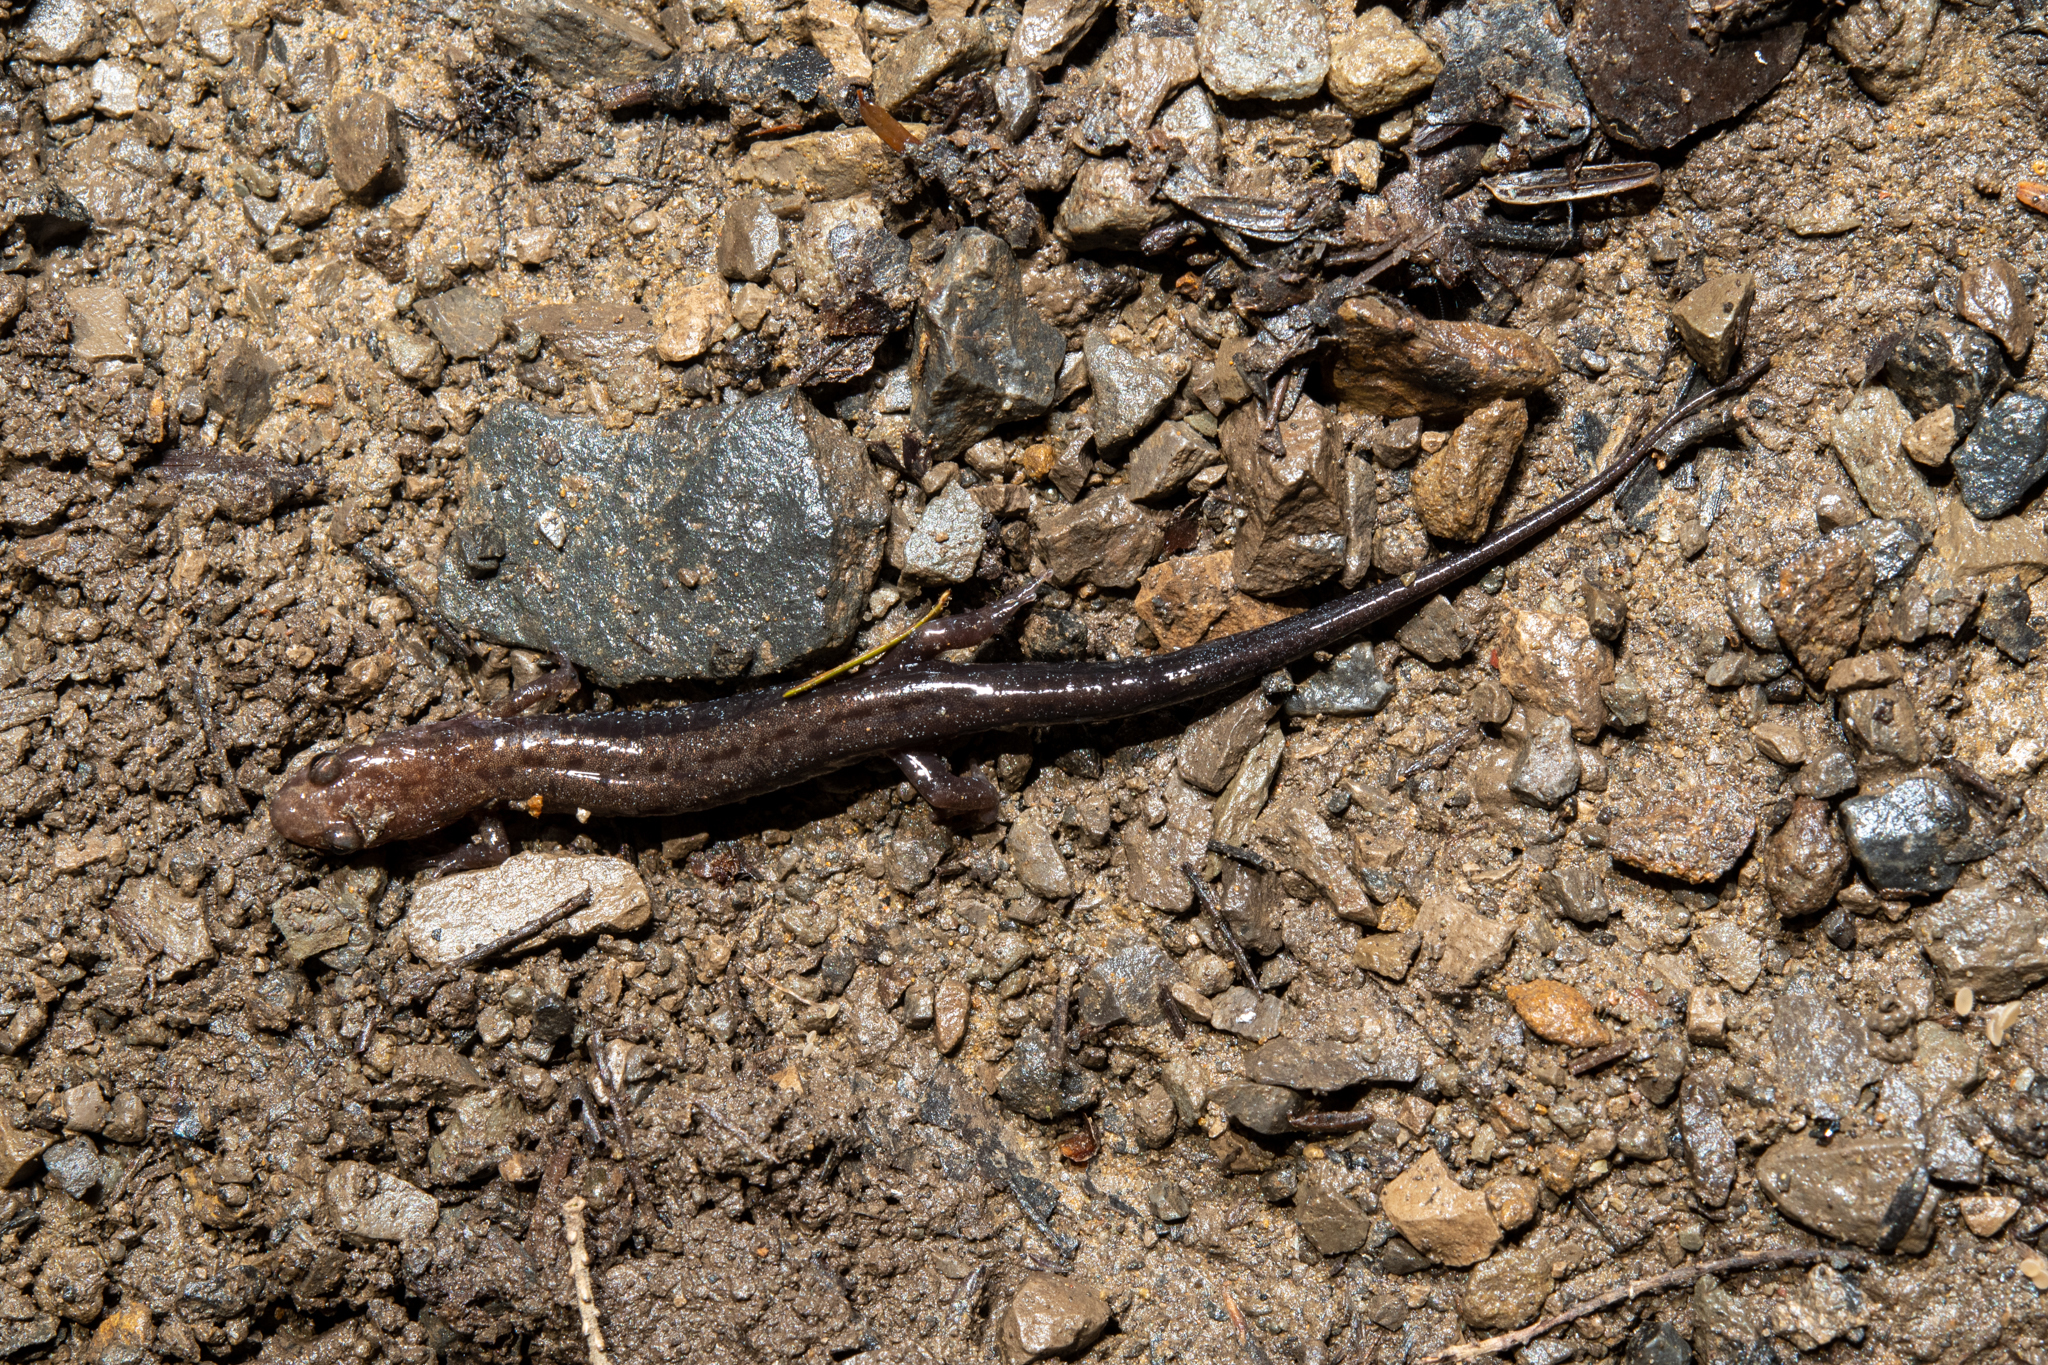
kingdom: Animalia
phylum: Chordata
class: Amphibia
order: Caudata
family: Plethodontidae
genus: Desmognathus
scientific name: Desmognathus ochrophaeus
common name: Allegheny mountain dusky salamander
